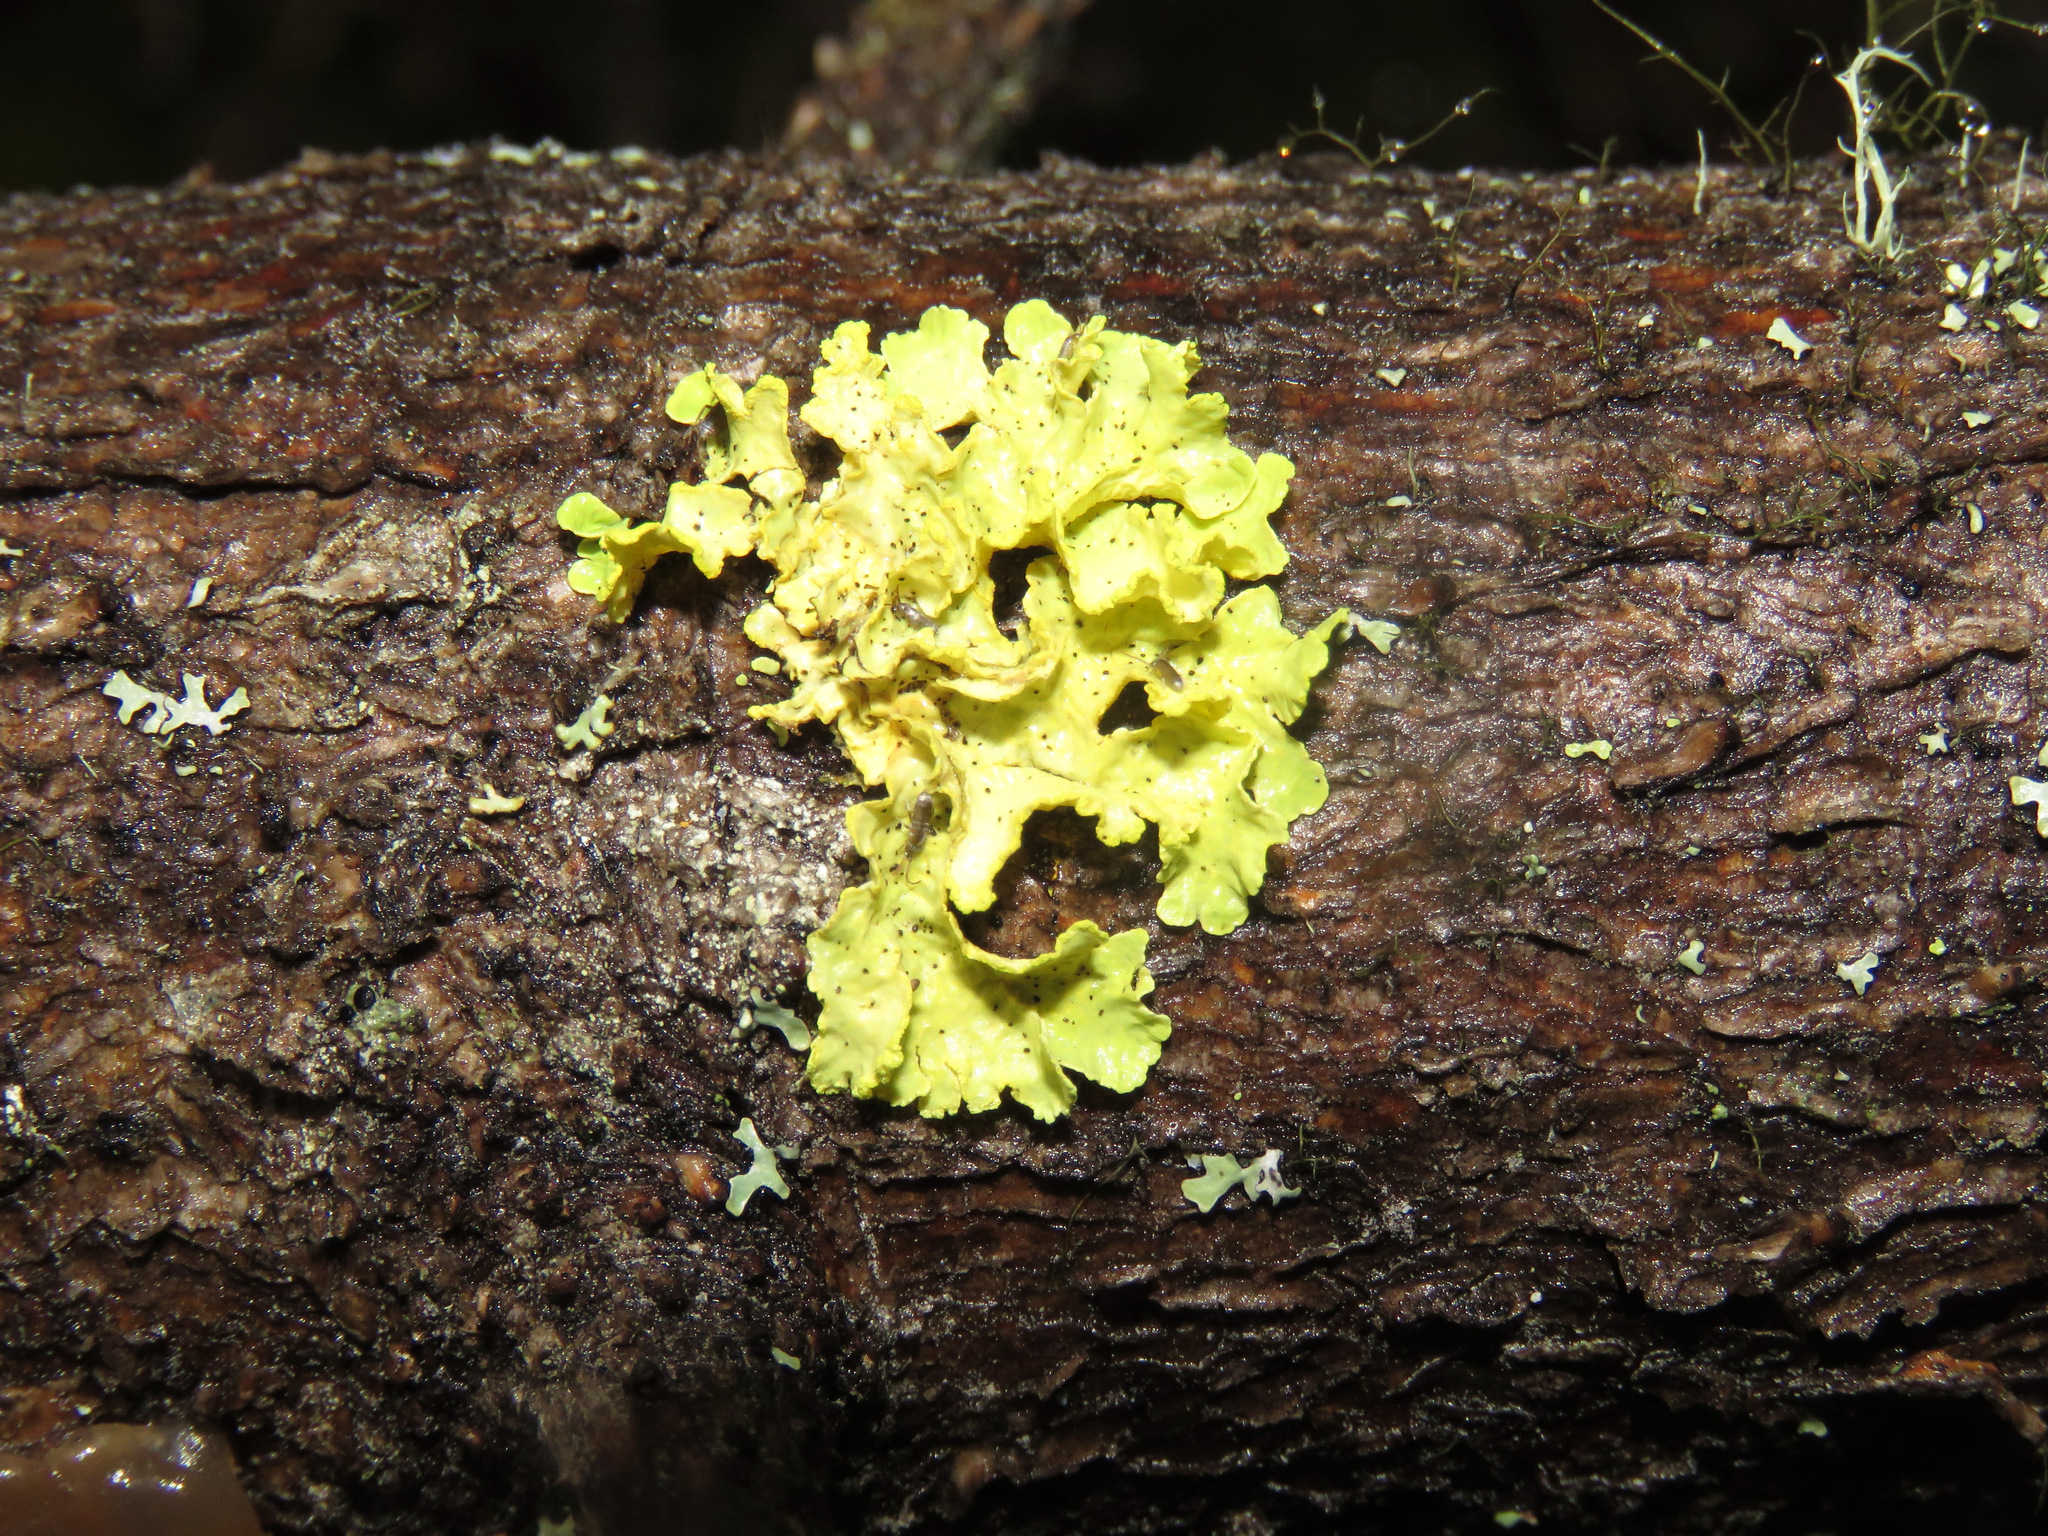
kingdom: Fungi
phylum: Ascomycota
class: Lecanoromycetes
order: Lecanorales
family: Parmeliaceae
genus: Vulpicida
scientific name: Vulpicida pinastri
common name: Powdered sunshine lichen
